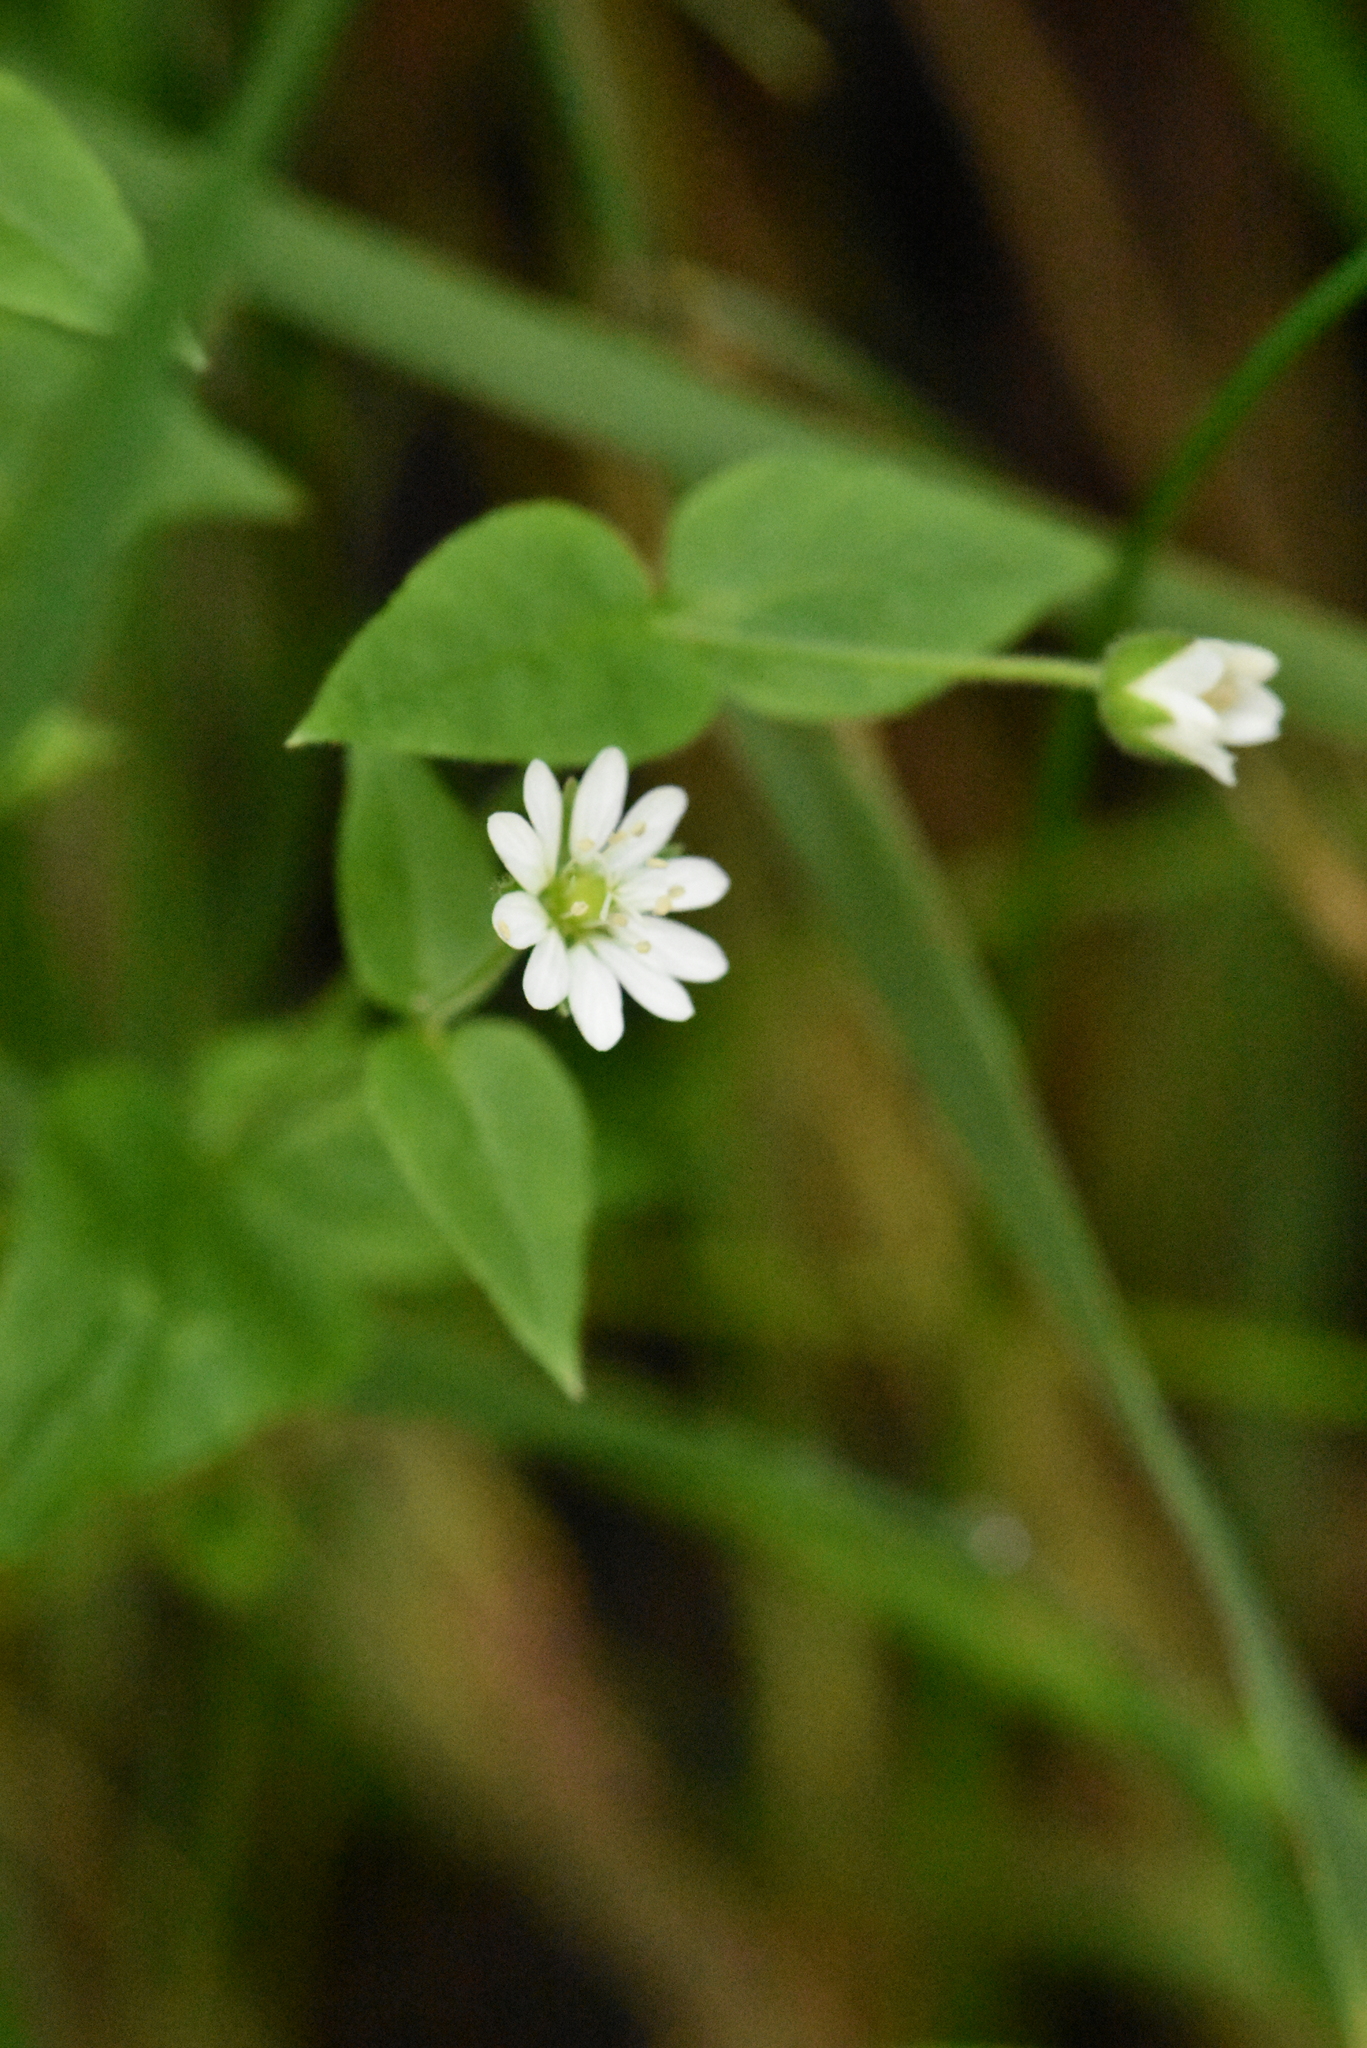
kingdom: Plantae
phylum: Tracheophyta
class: Magnoliopsida
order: Caryophyllales
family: Caryophyllaceae
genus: Stellaria
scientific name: Stellaria aquatica
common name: Water chickweed
